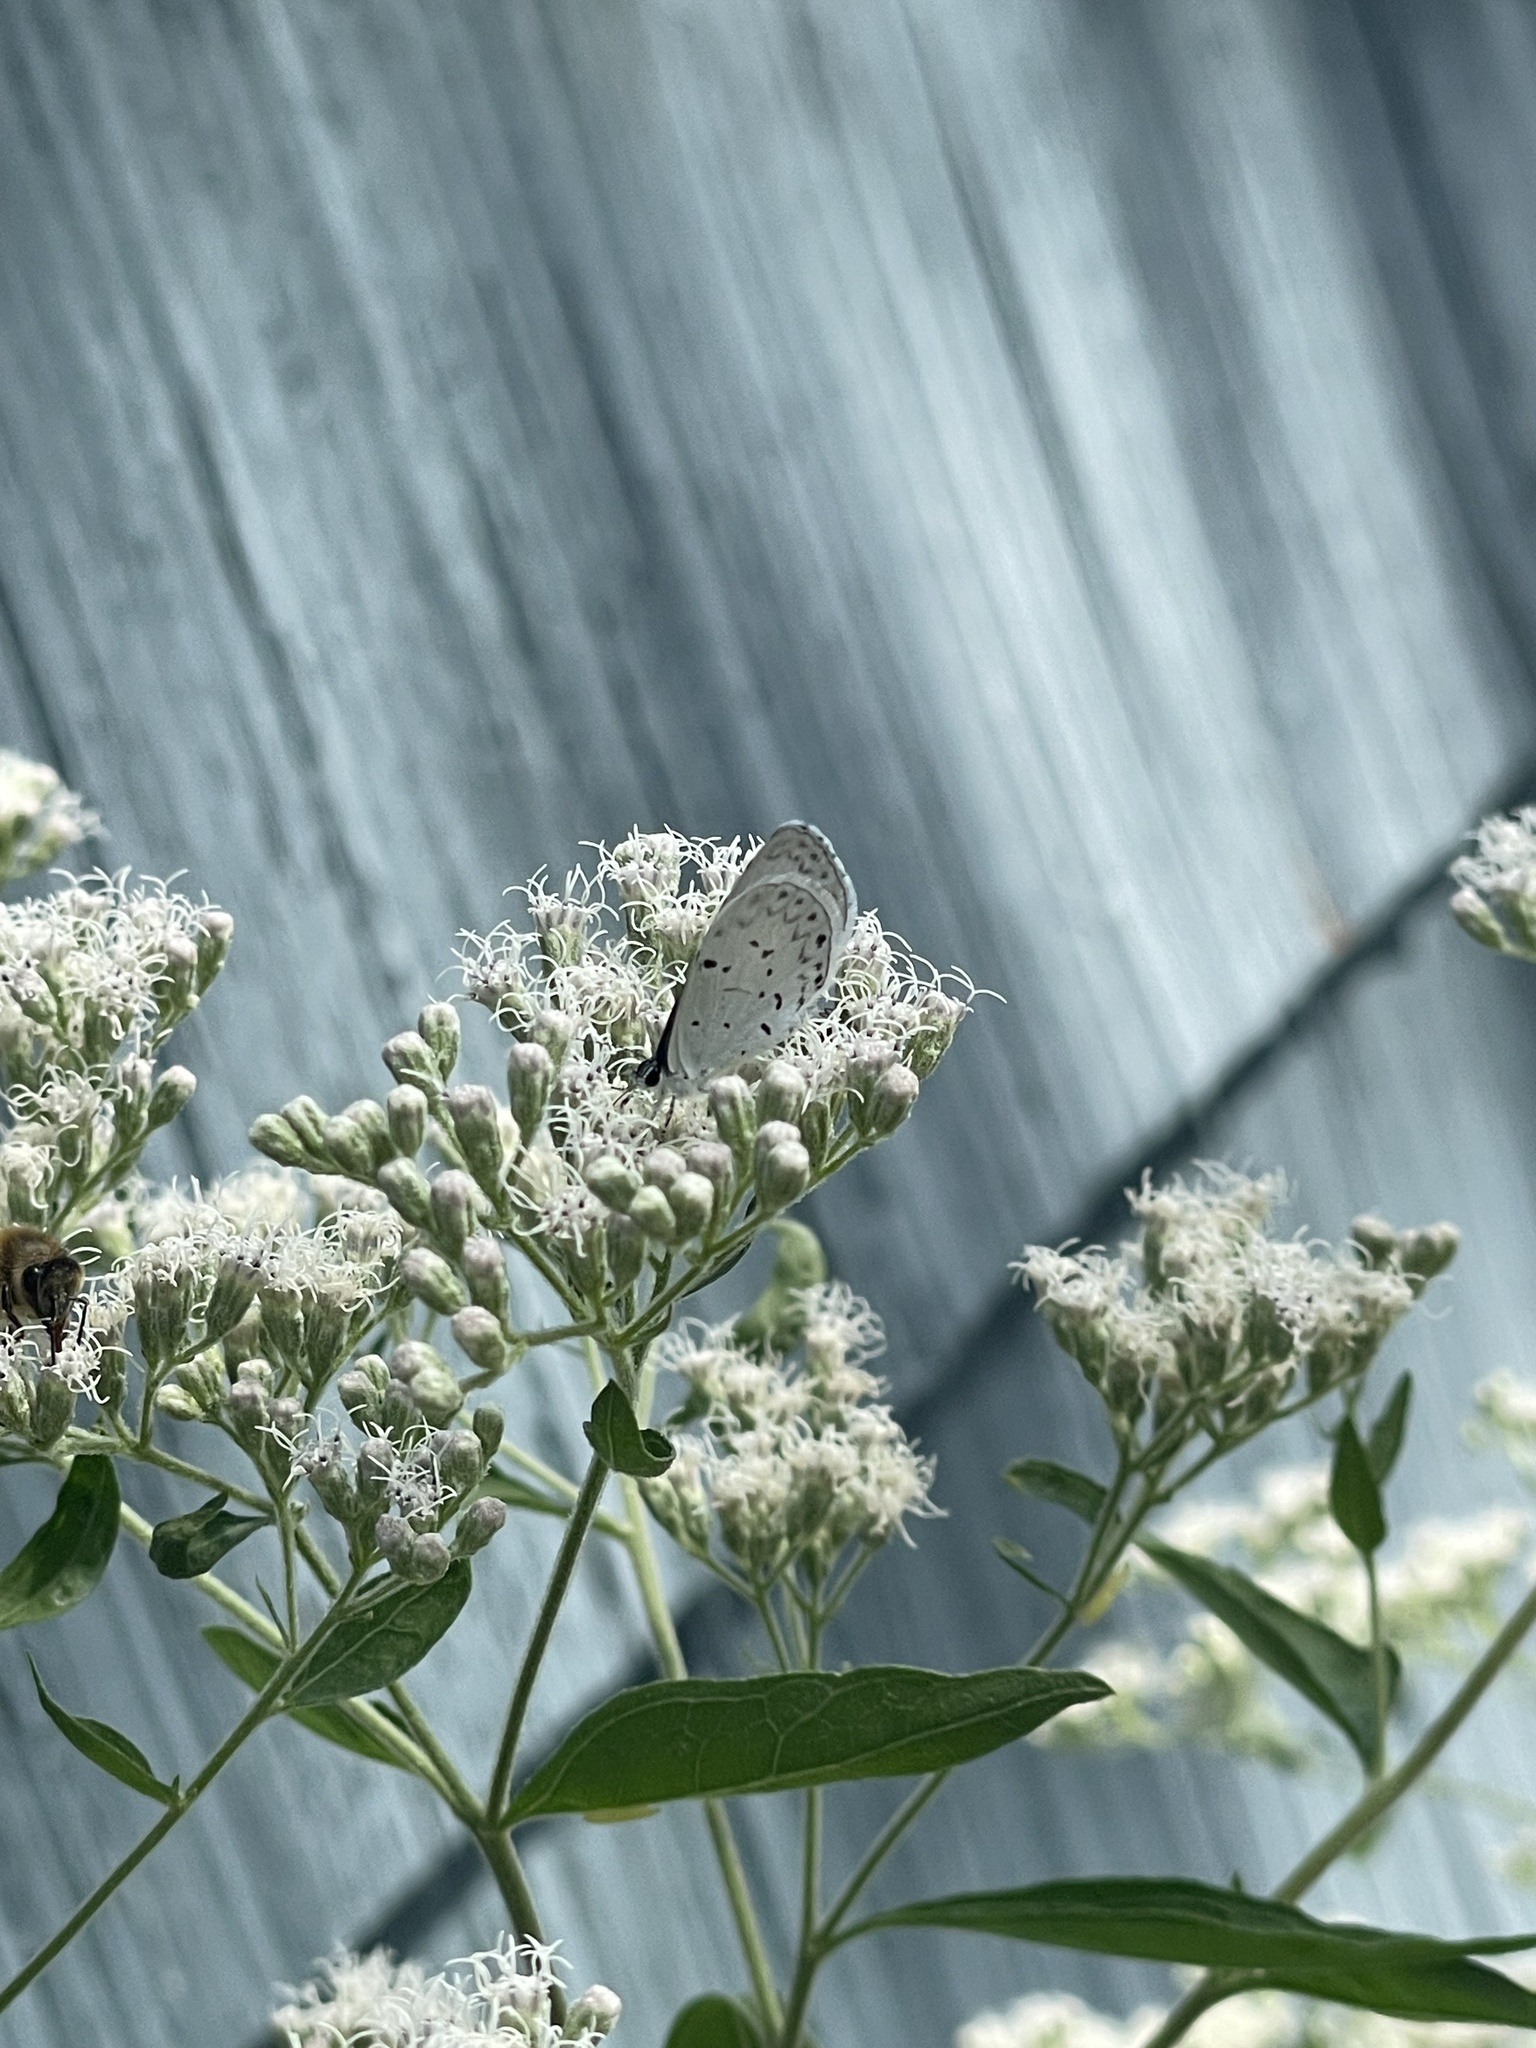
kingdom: Animalia
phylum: Arthropoda
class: Insecta
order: Lepidoptera
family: Lycaenidae
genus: Cyaniris
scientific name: Cyaniris neglecta
